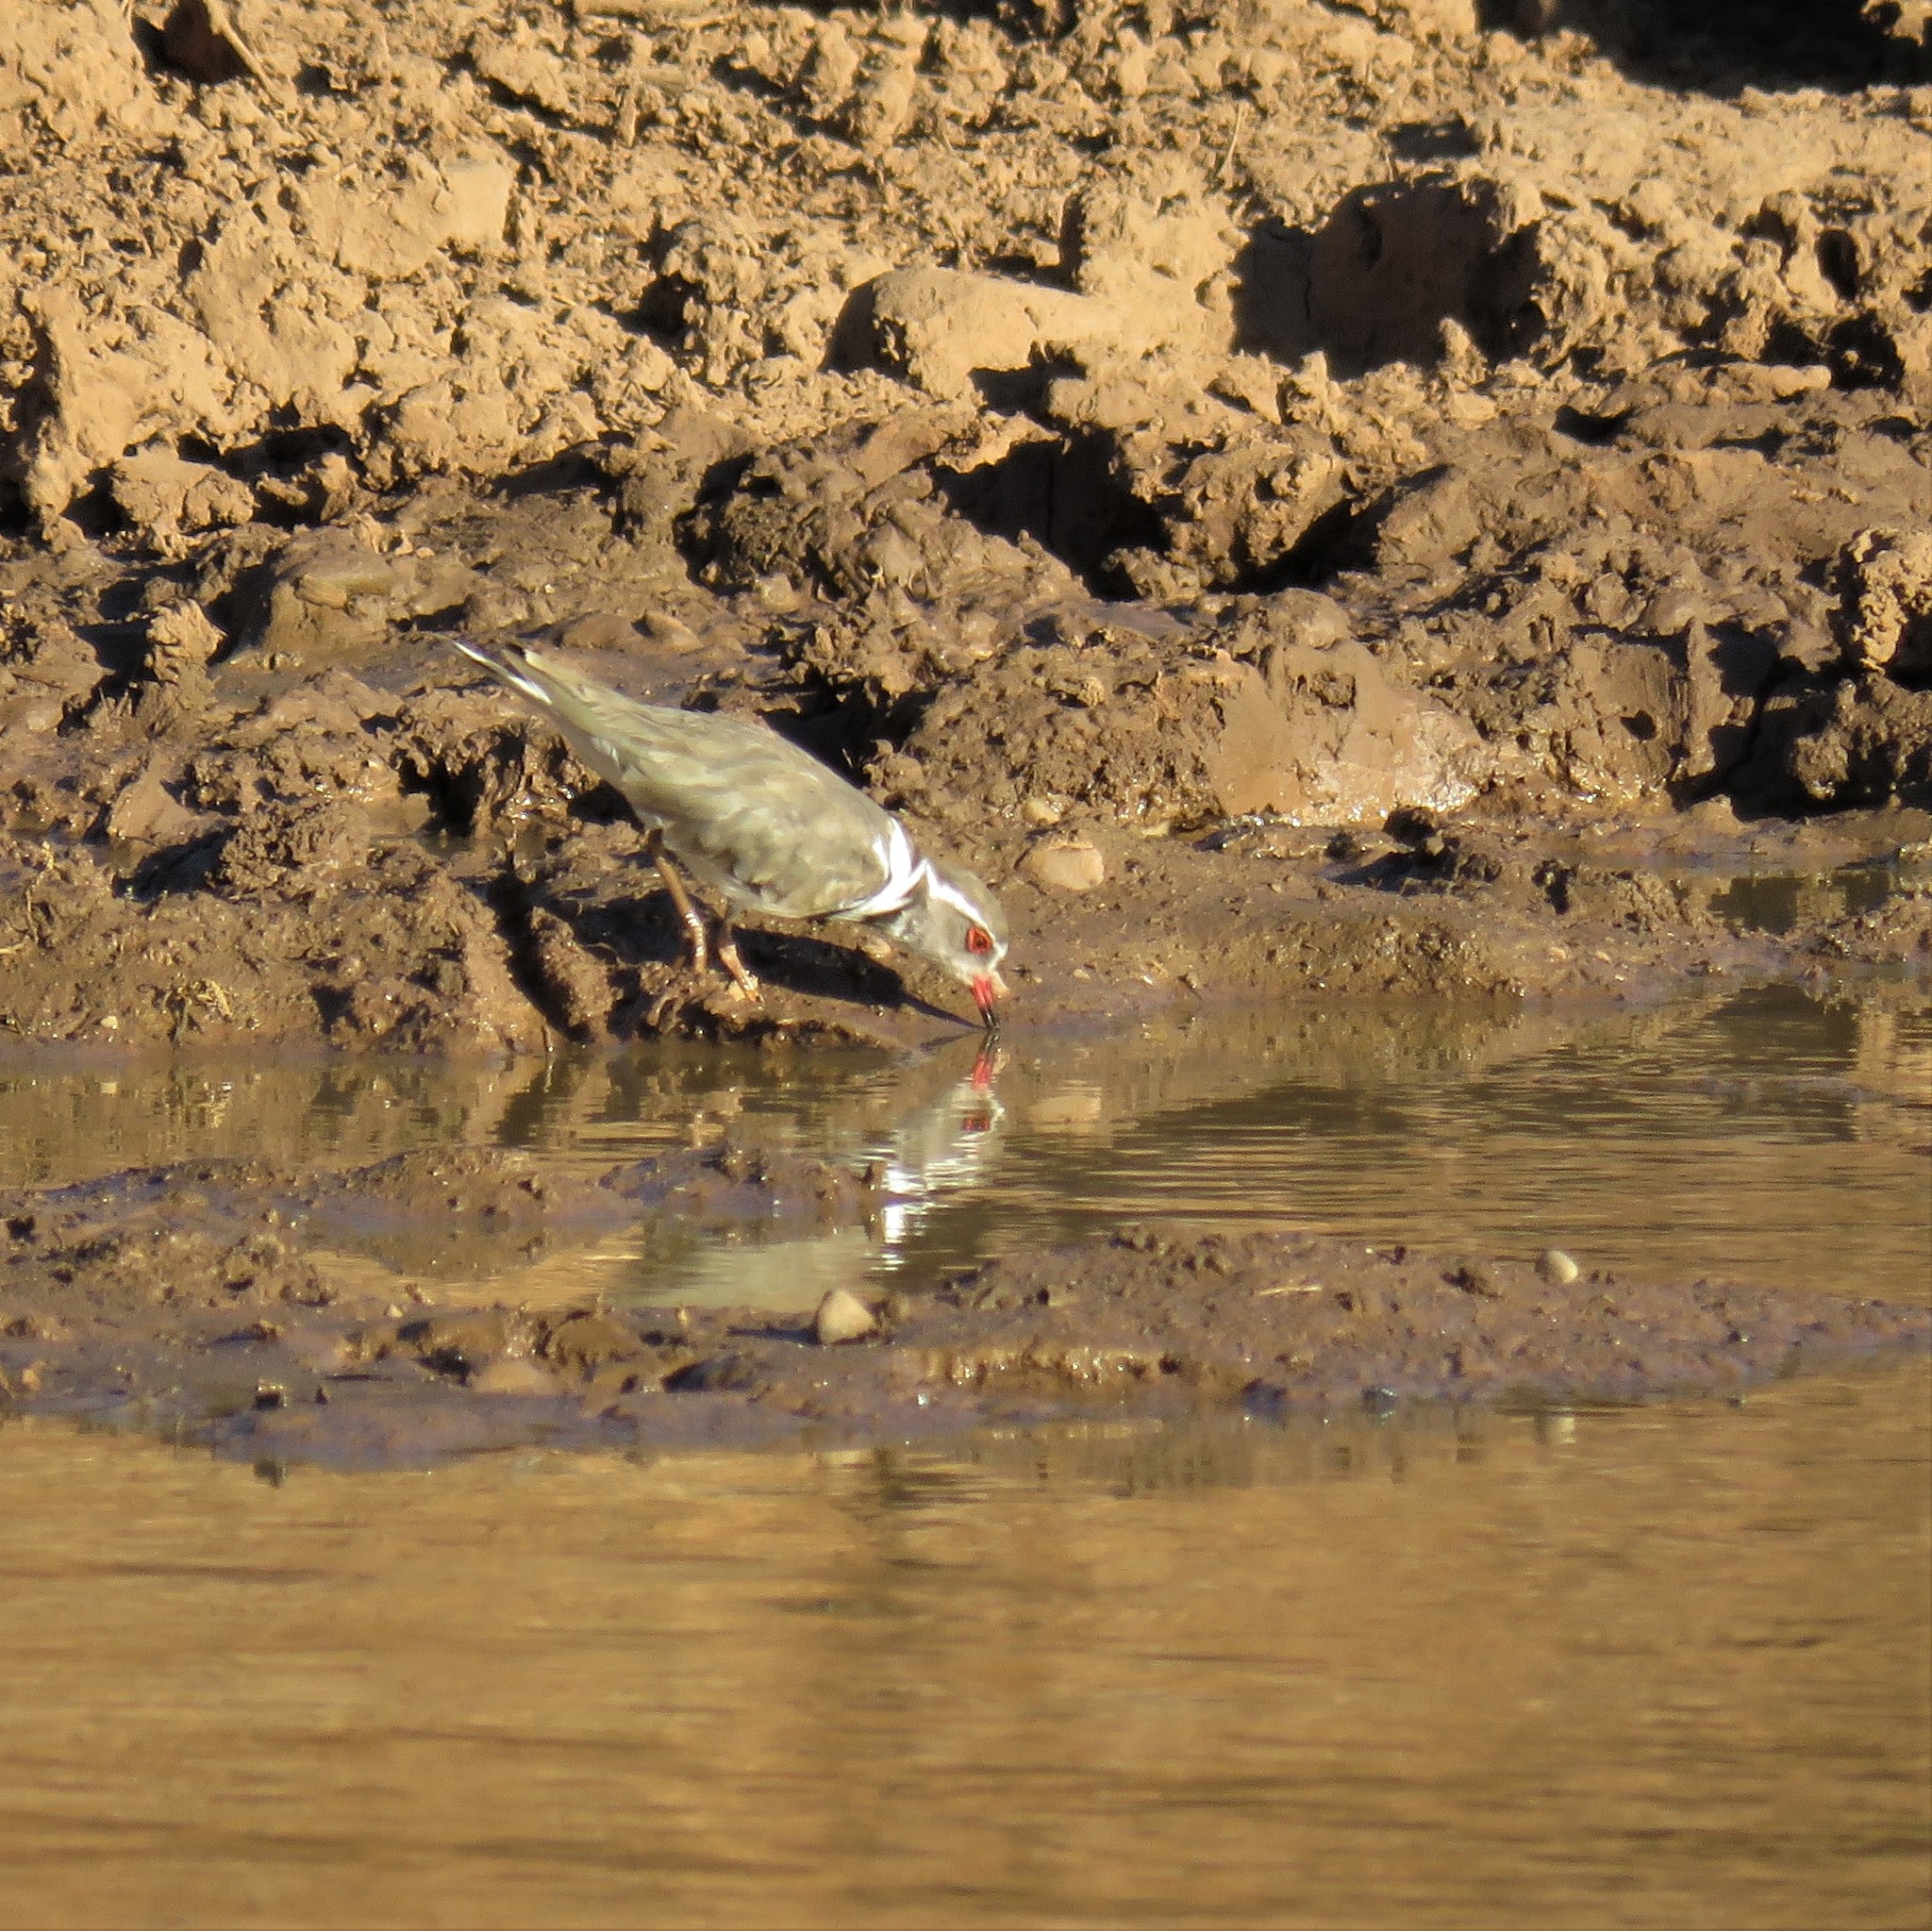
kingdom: Animalia
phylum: Chordata
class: Aves
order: Charadriiformes
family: Charadriidae
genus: Charadrius
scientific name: Charadrius tricollaris
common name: Three-banded plover
